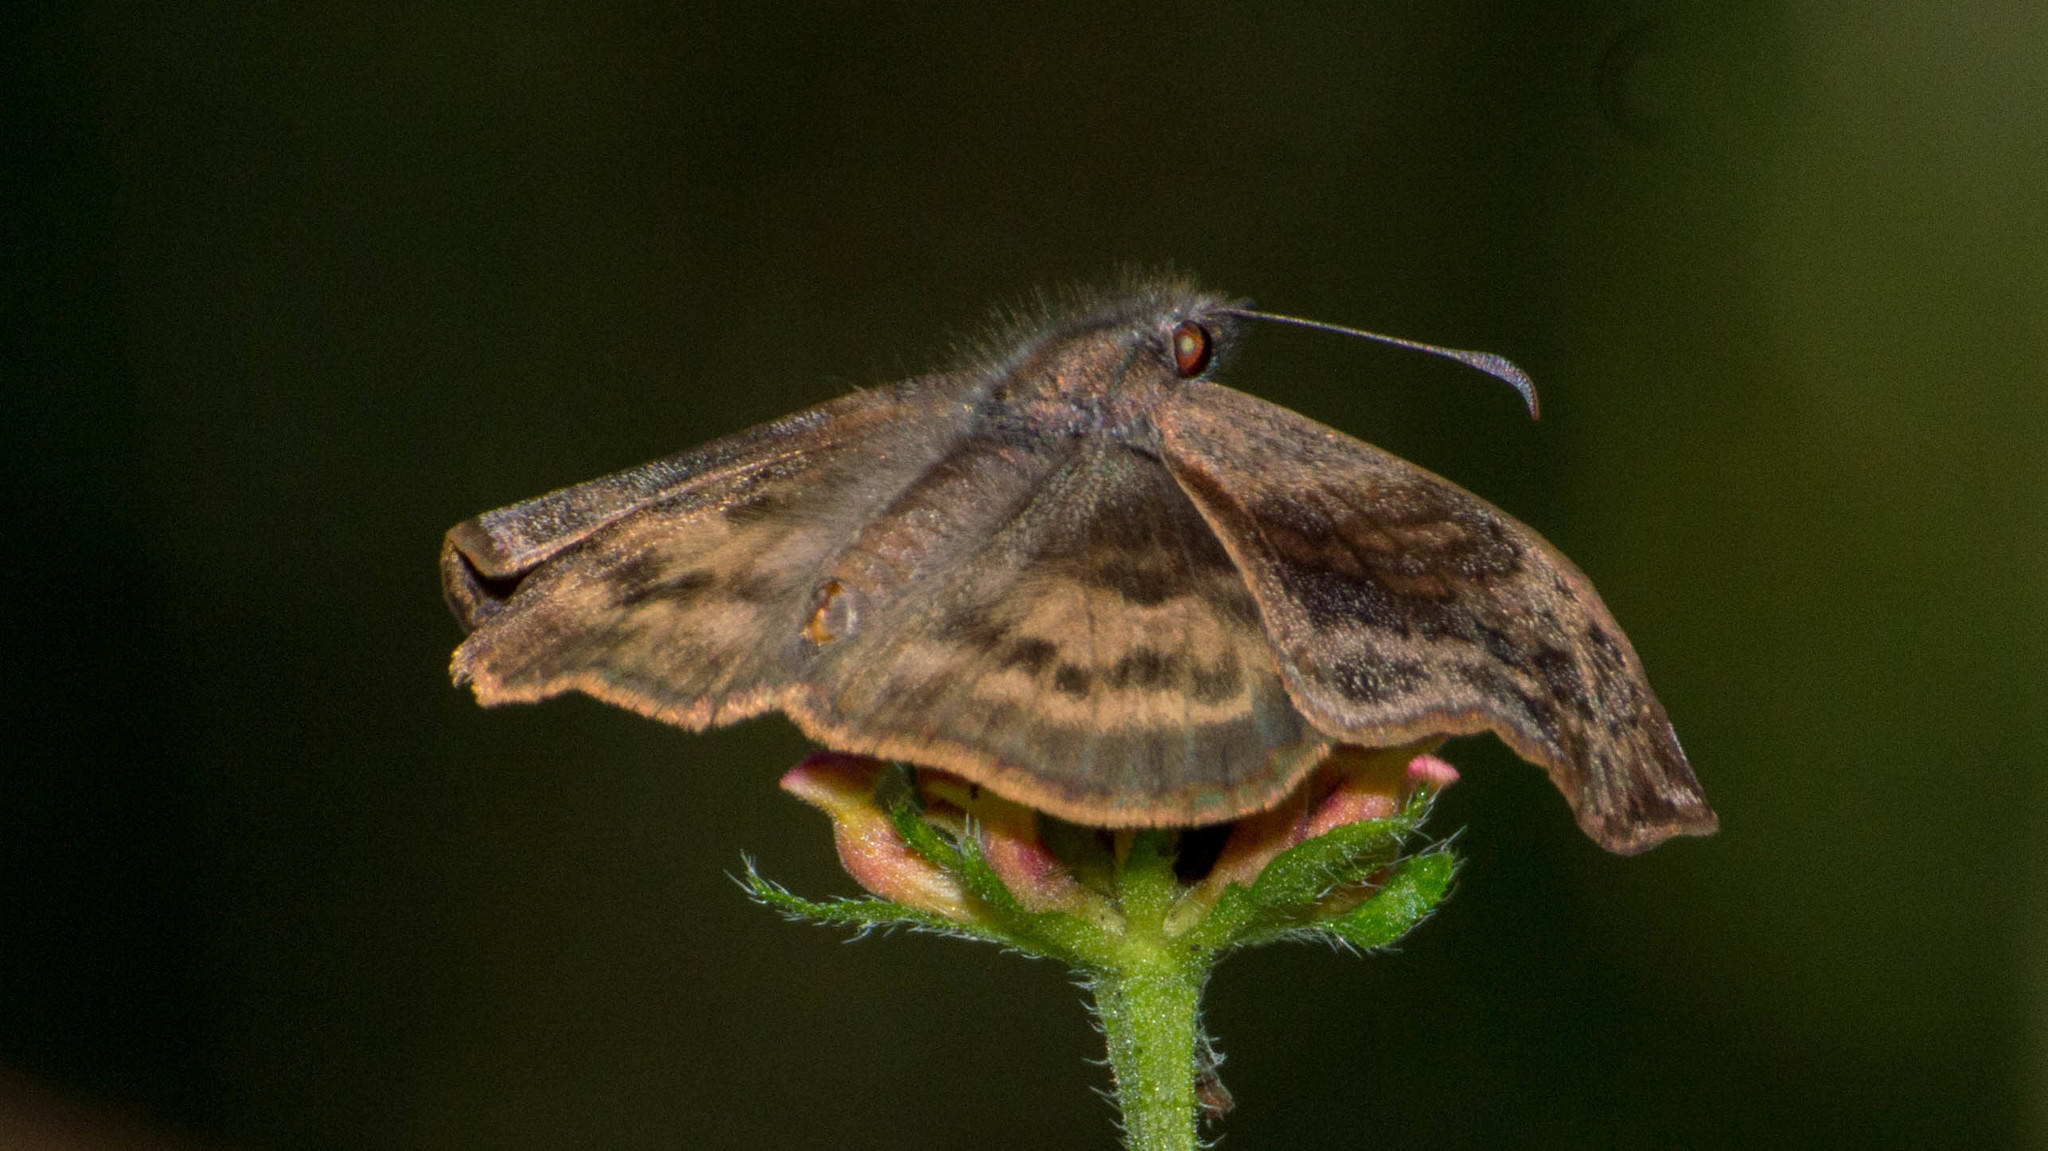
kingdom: Animalia
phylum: Arthropoda
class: Insecta
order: Lepidoptera
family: Hesperiidae
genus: Theagenes
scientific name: Theagenes dichrous
